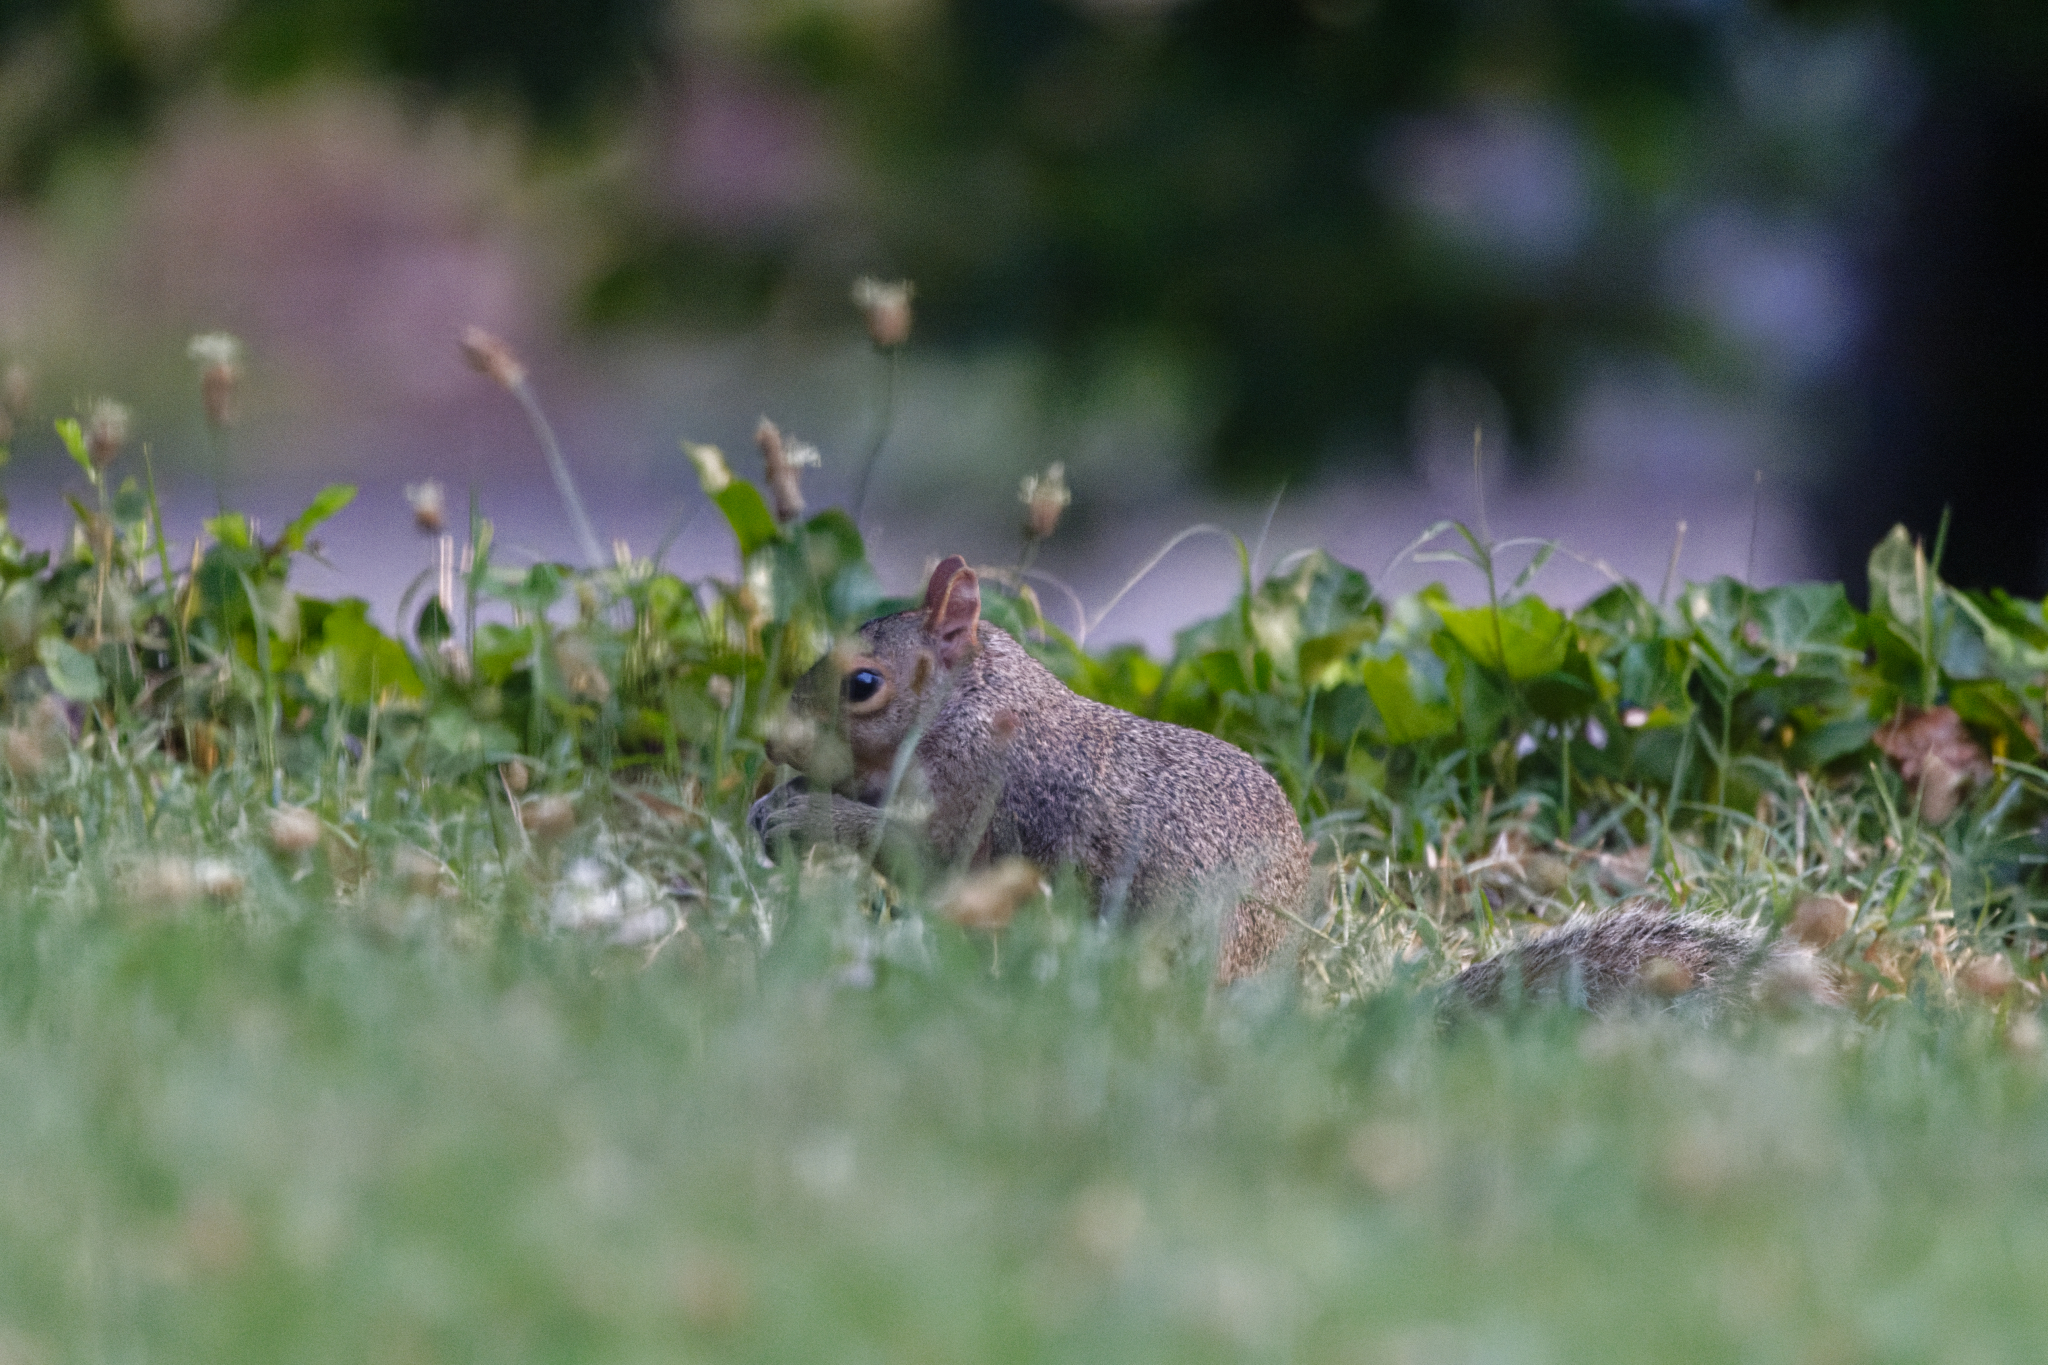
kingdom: Animalia
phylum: Chordata
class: Mammalia
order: Rodentia
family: Sciuridae
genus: Sciurus
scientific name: Sciurus carolinensis
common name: Eastern gray squirrel
